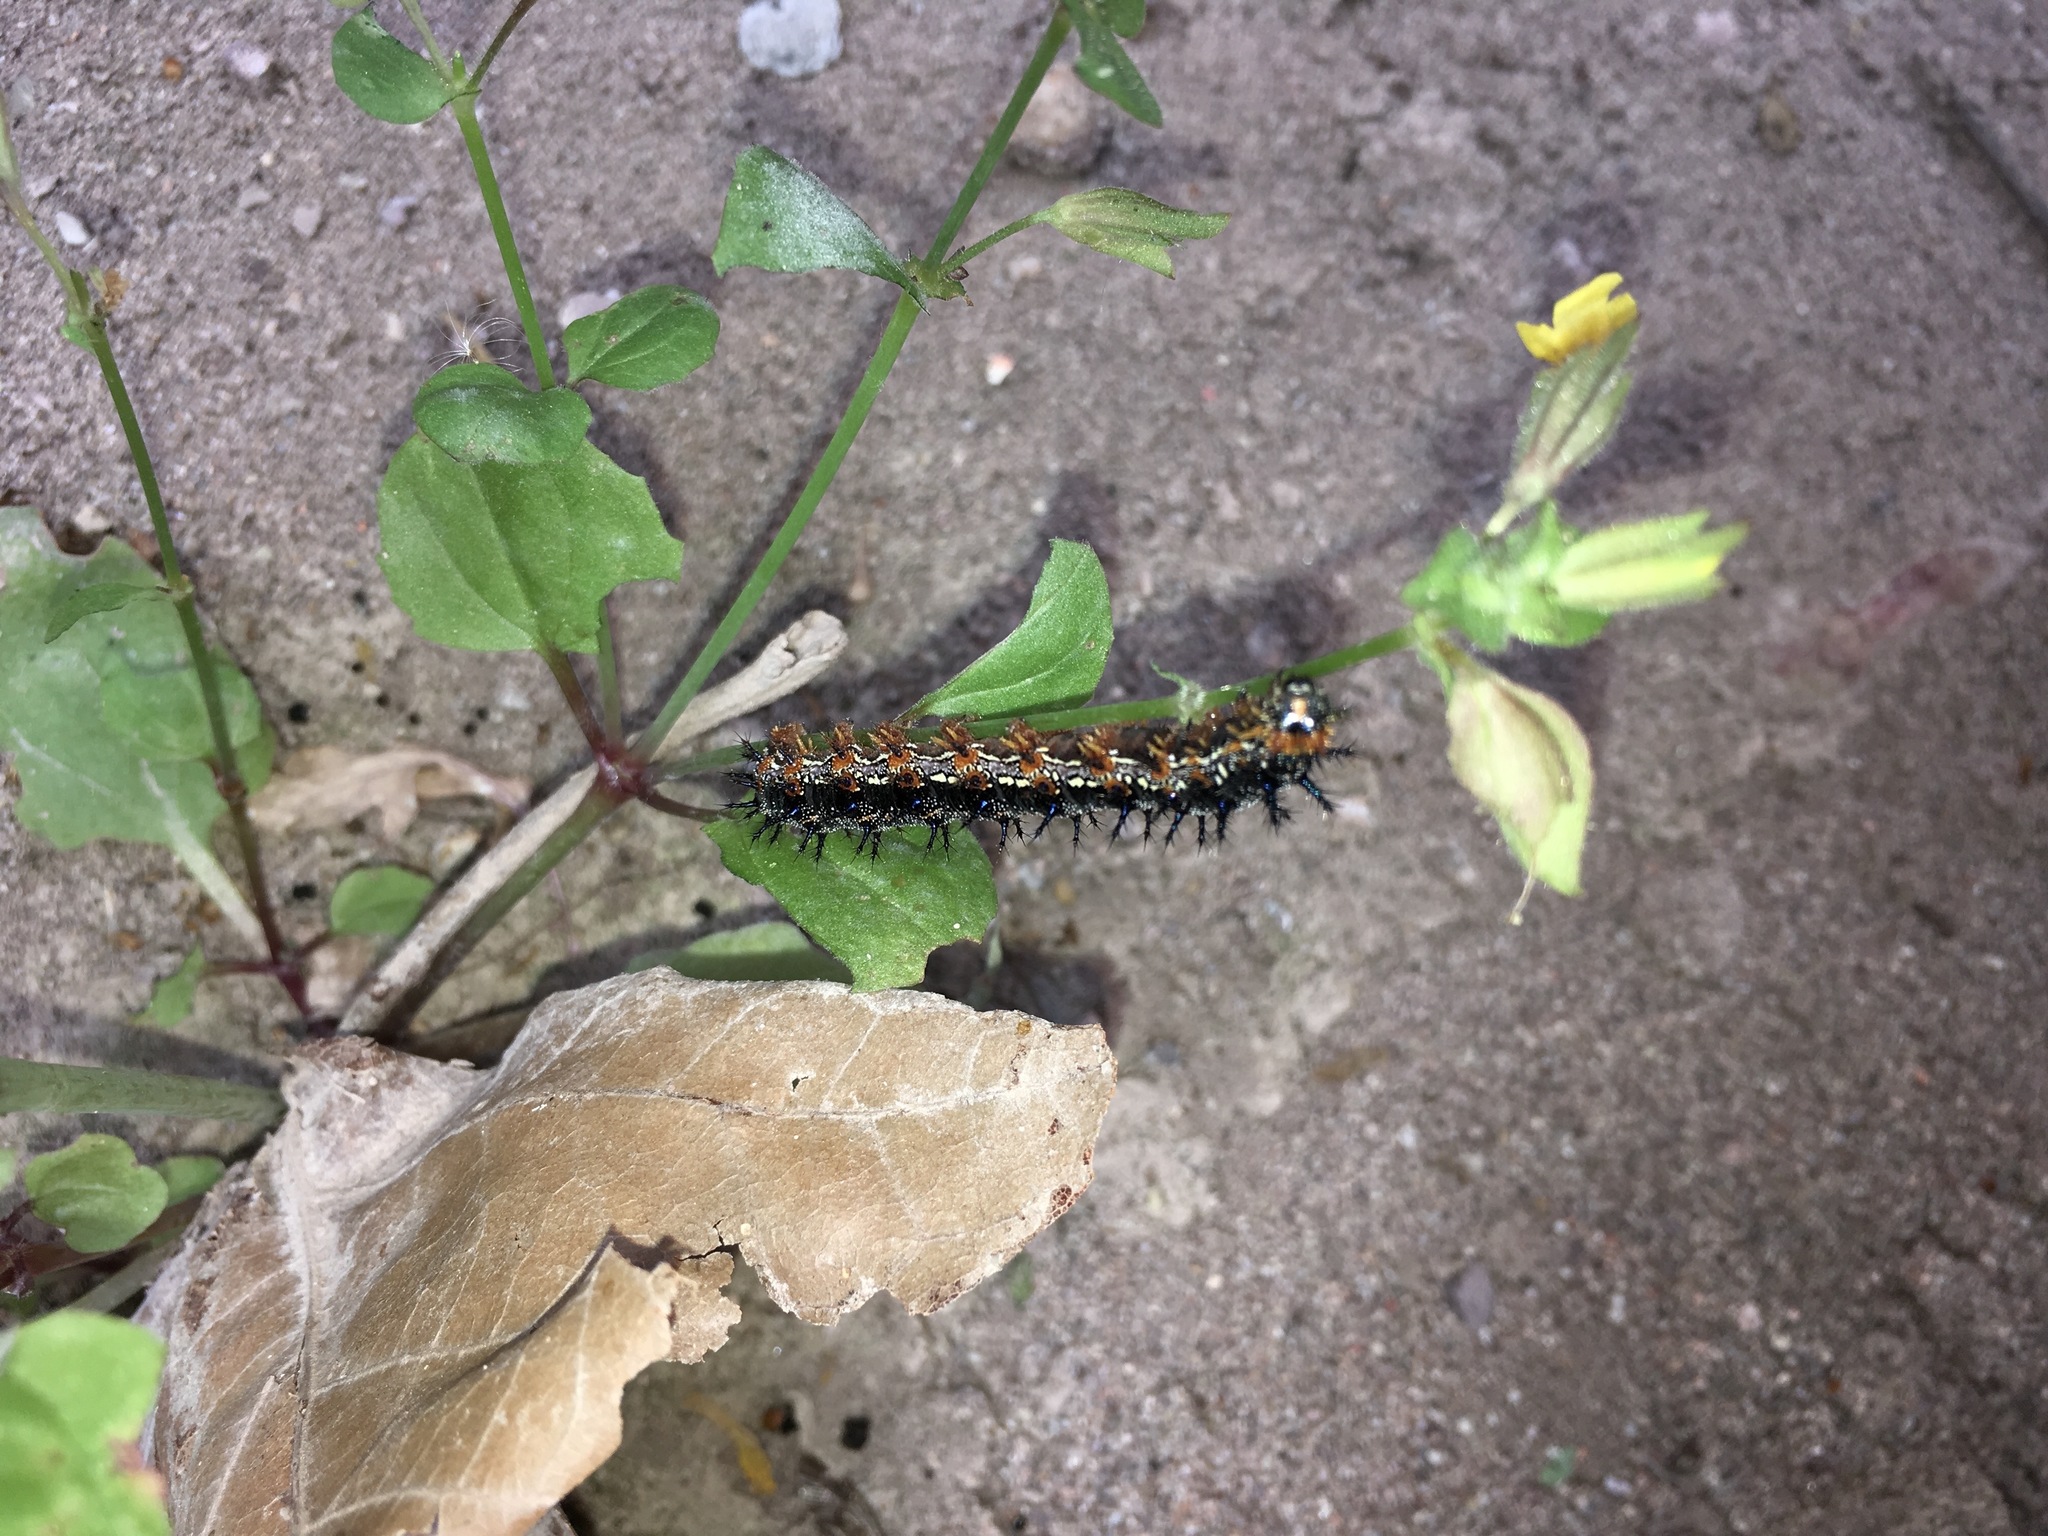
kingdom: Animalia
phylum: Arthropoda
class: Insecta
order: Lepidoptera
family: Nymphalidae
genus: Junonia
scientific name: Junonia grisea
